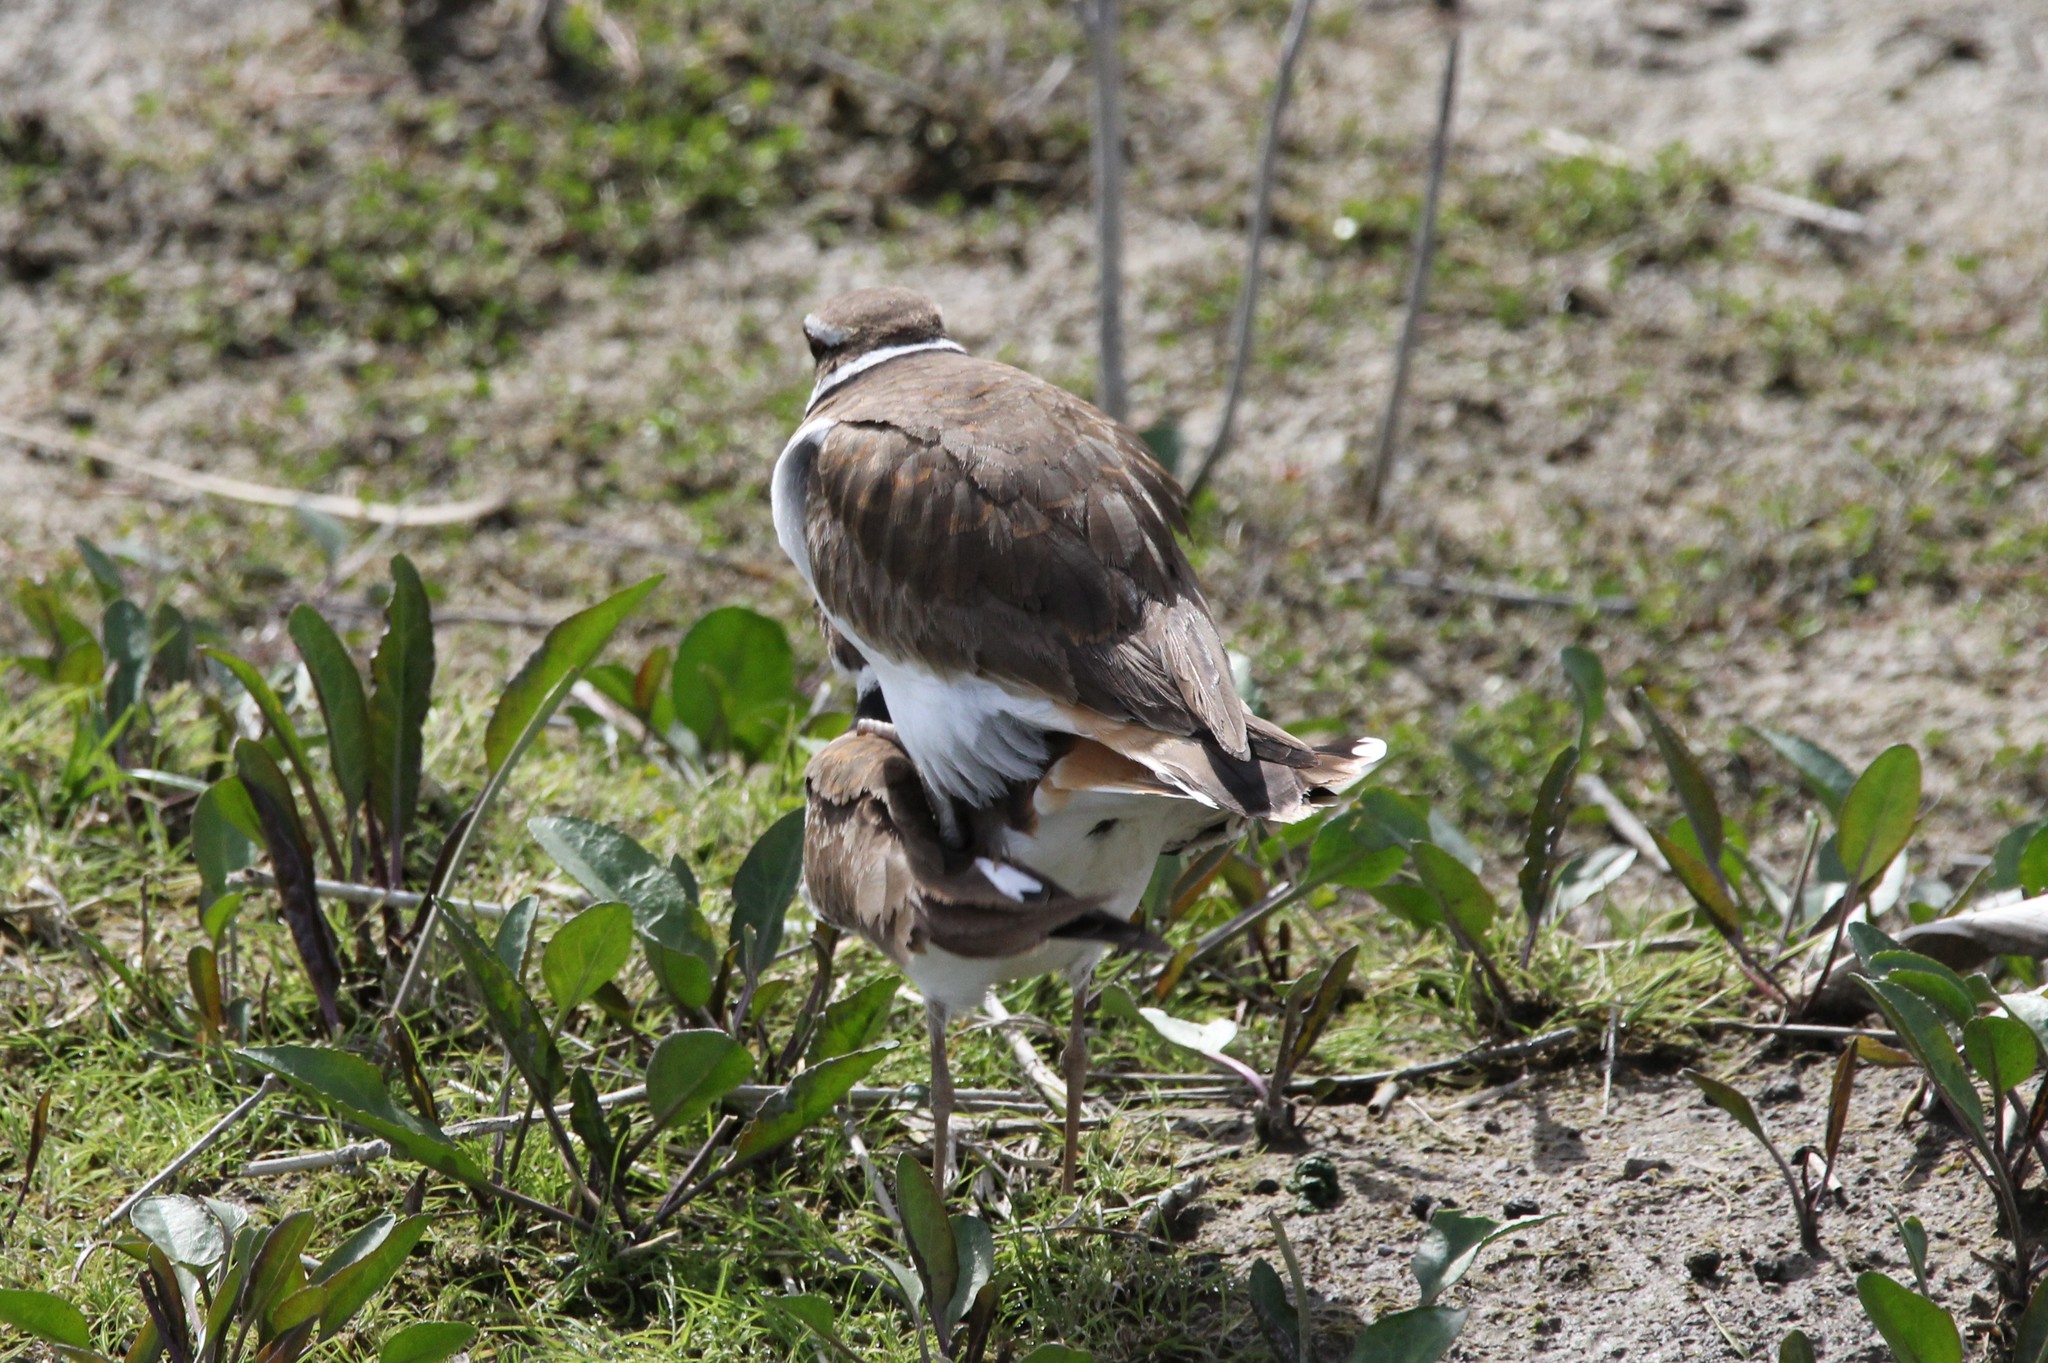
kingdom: Animalia
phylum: Chordata
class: Aves
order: Charadriiformes
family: Charadriidae
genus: Charadrius
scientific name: Charadrius vociferus
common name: Killdeer
